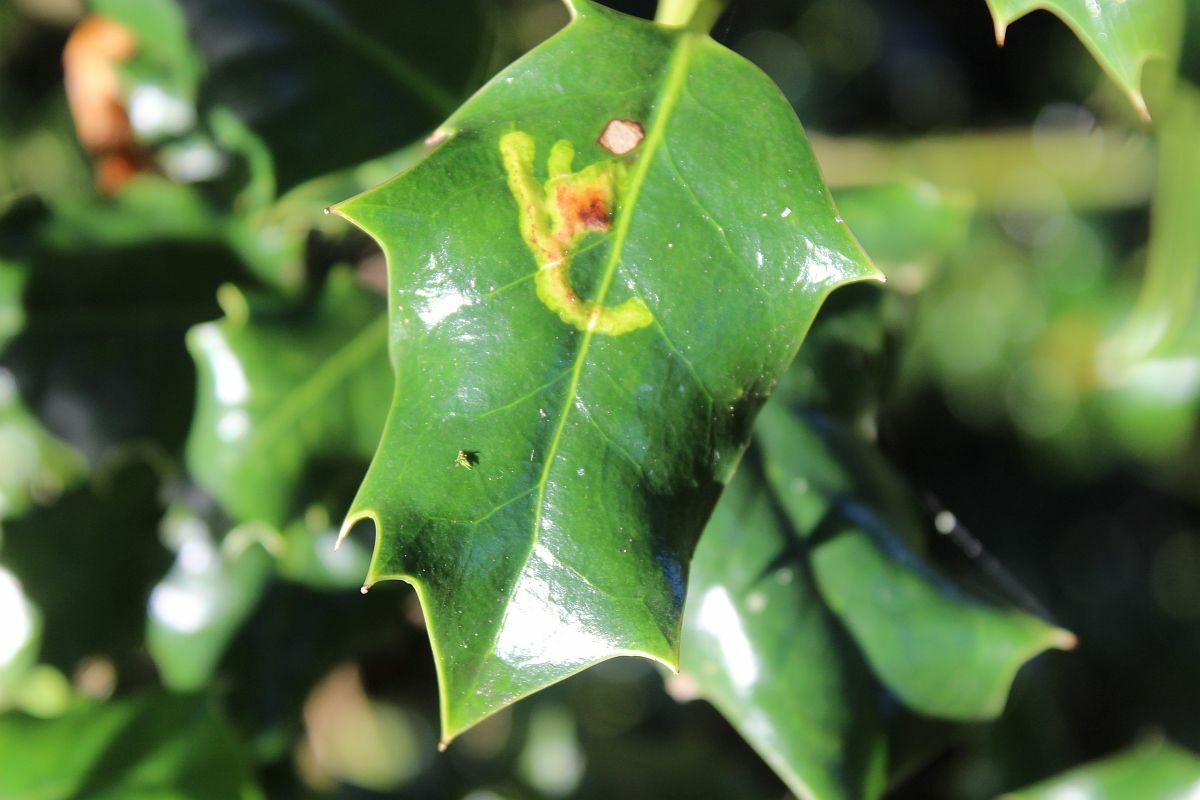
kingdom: Animalia
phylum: Arthropoda
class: Insecta
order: Diptera
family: Agromyzidae
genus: Phytomyza
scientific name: Phytomyza ilicis
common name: Holly leafminer
